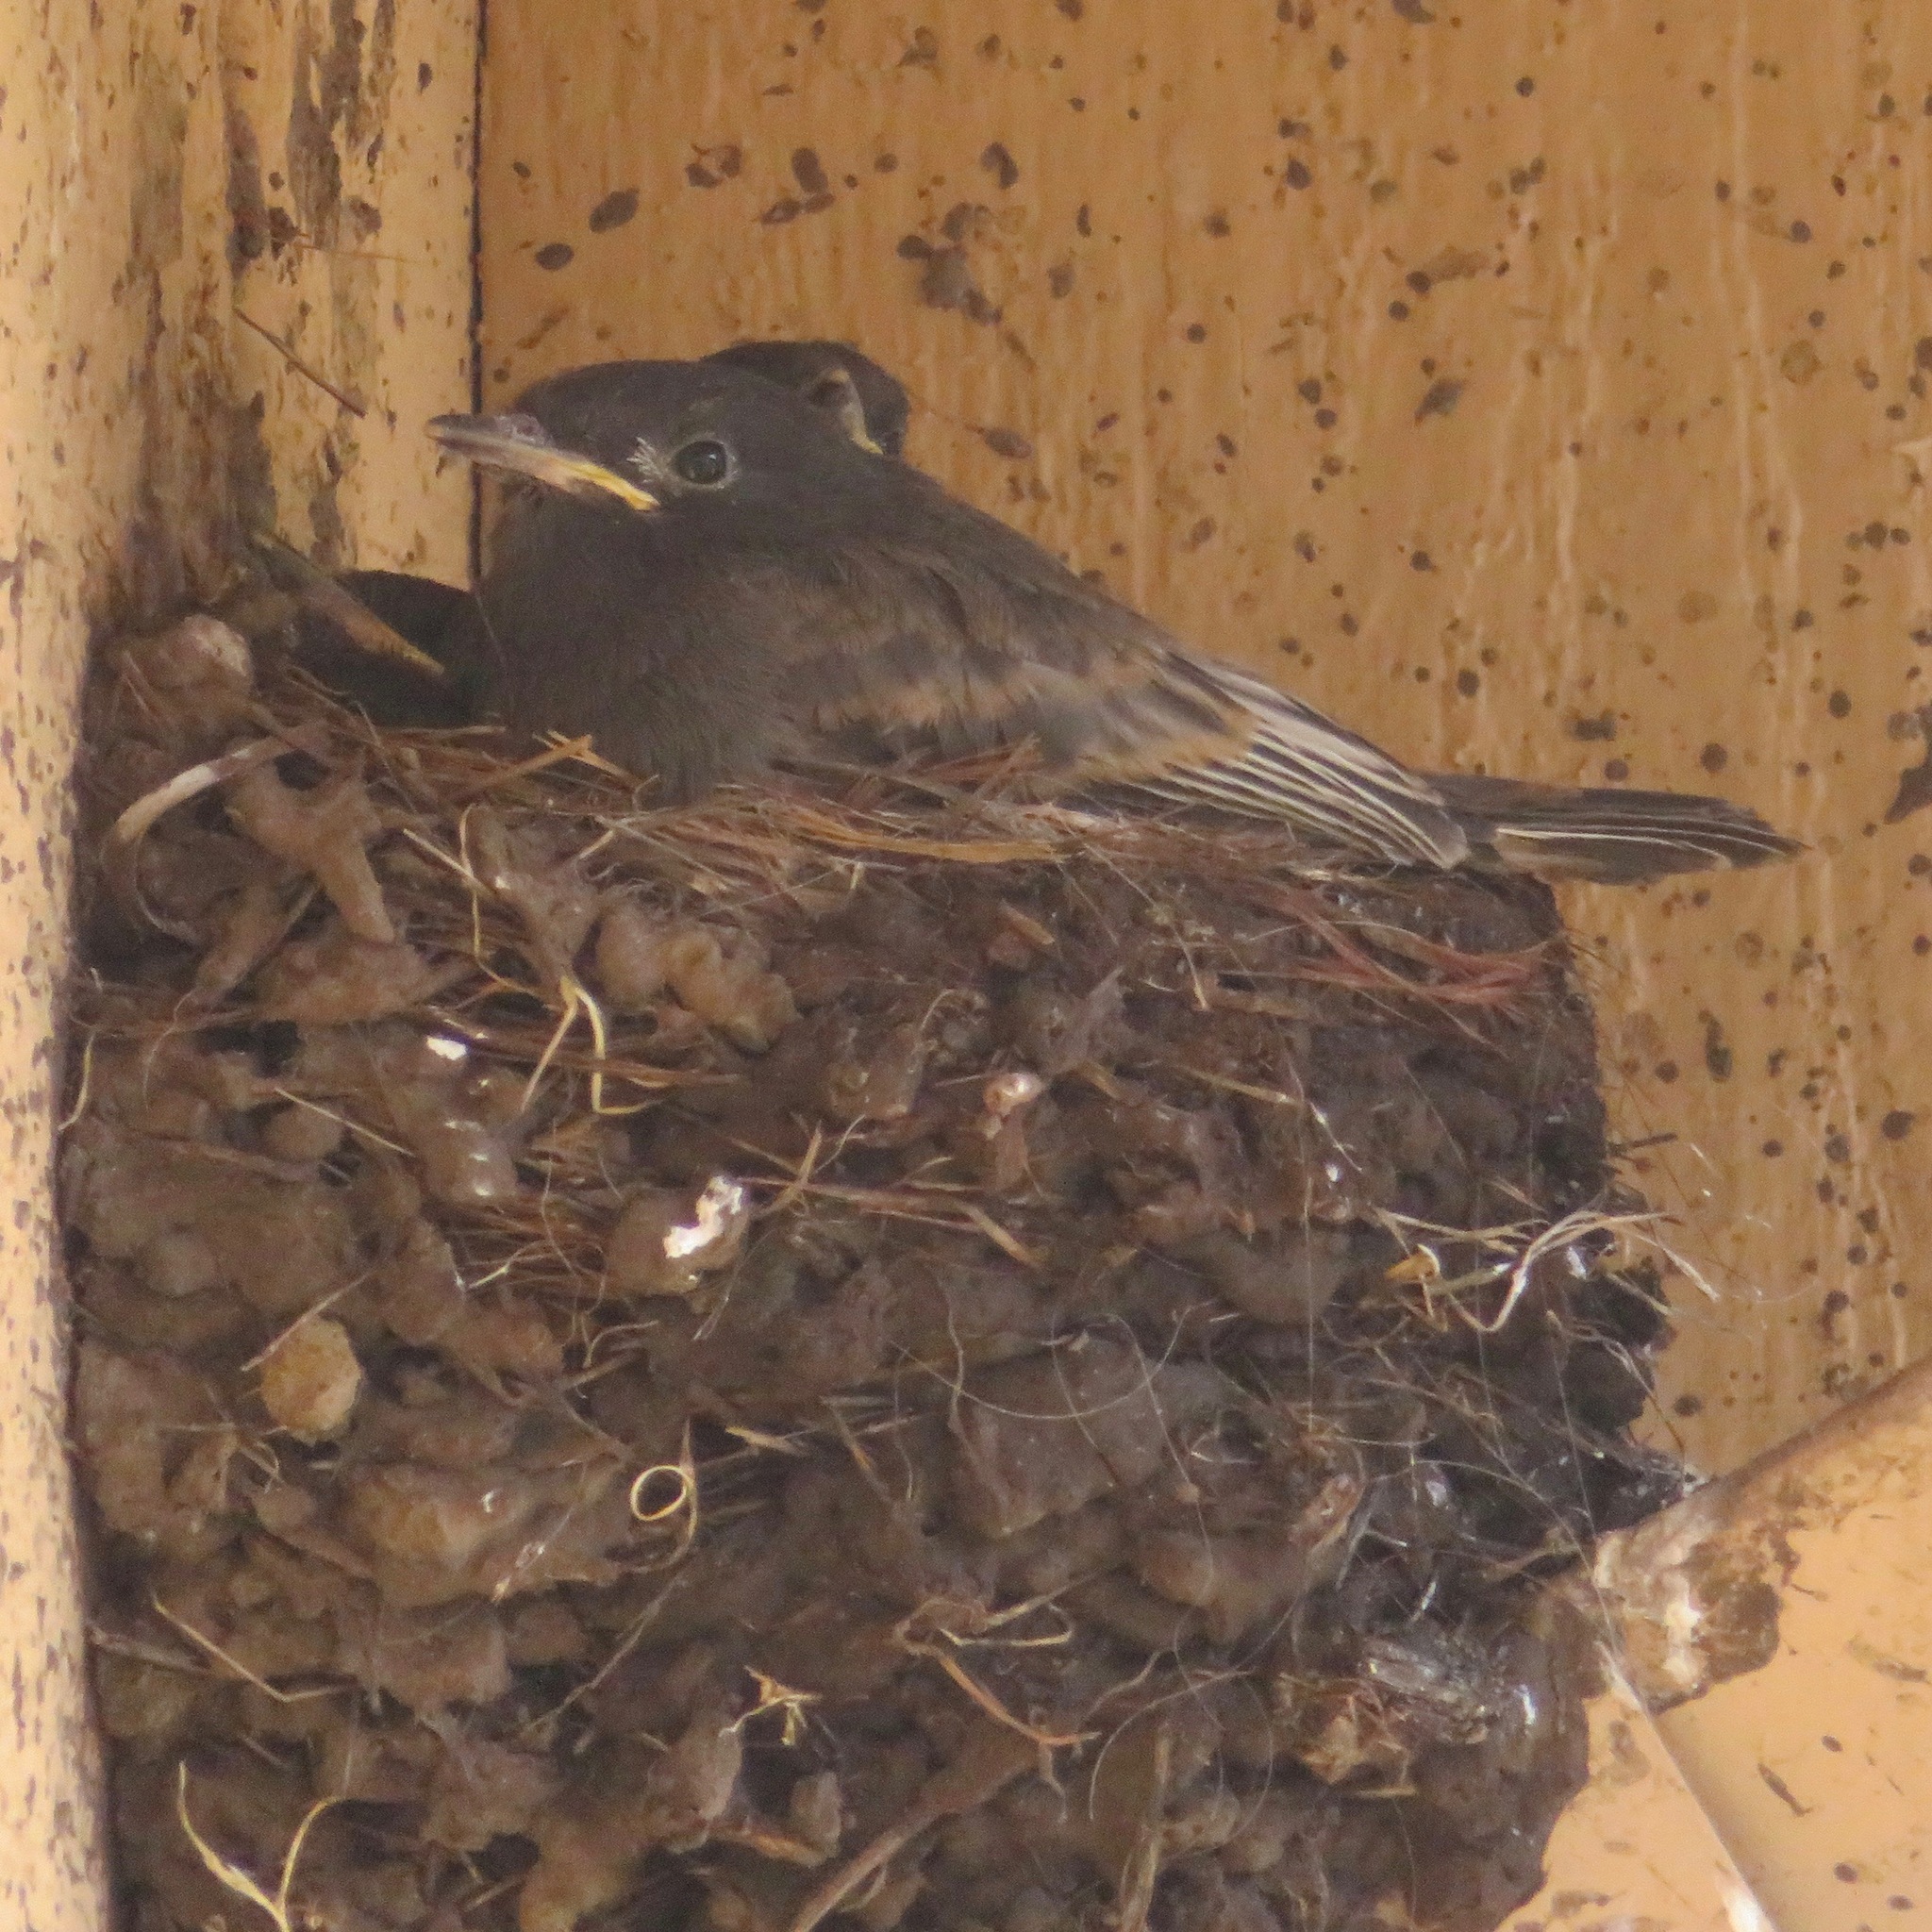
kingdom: Animalia
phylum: Chordata
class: Aves
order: Passeriformes
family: Tyrannidae
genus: Sayornis
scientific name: Sayornis nigricans
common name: Black phoebe
